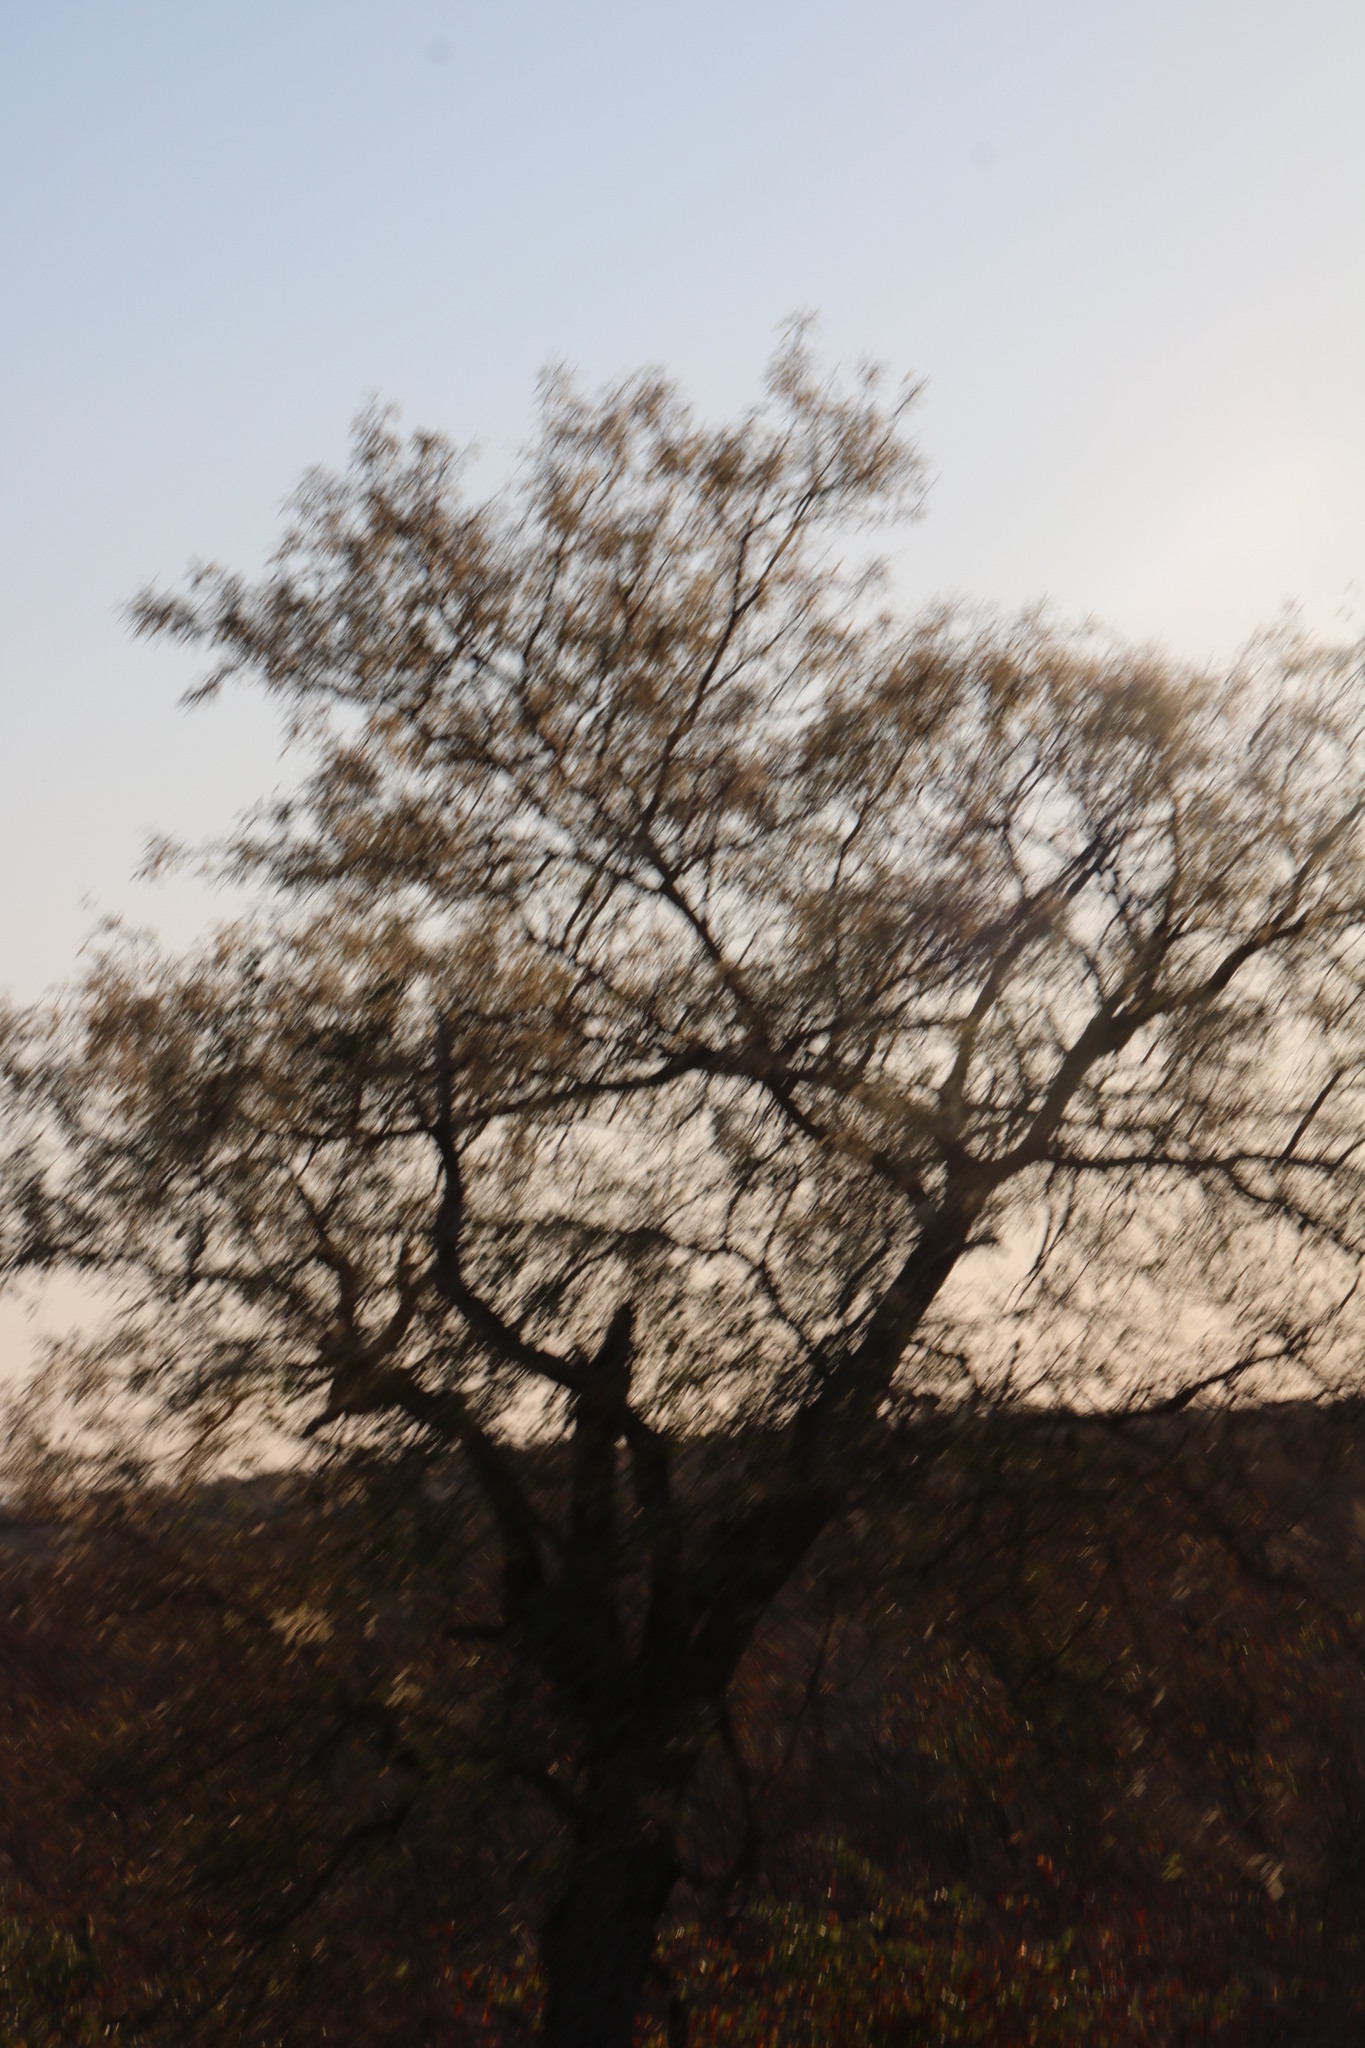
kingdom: Plantae
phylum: Tracheophyta
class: Magnoliopsida
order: Malvales
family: Malvaceae
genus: Adansonia
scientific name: Adansonia digitata
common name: Dead-rat-tree
